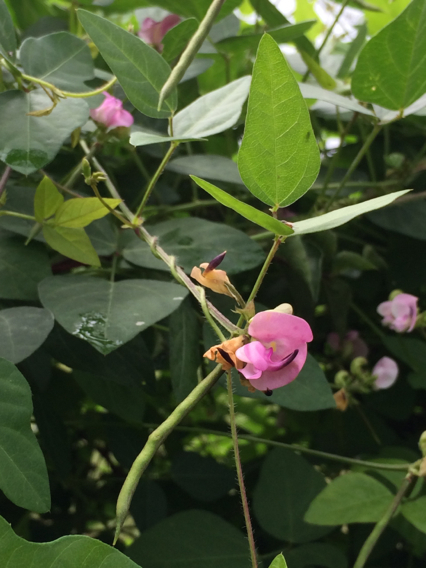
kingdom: Plantae
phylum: Tracheophyta
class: Magnoliopsida
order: Fabales
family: Fabaceae
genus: Strophostyles
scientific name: Strophostyles helvola
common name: Trailing wild bean
